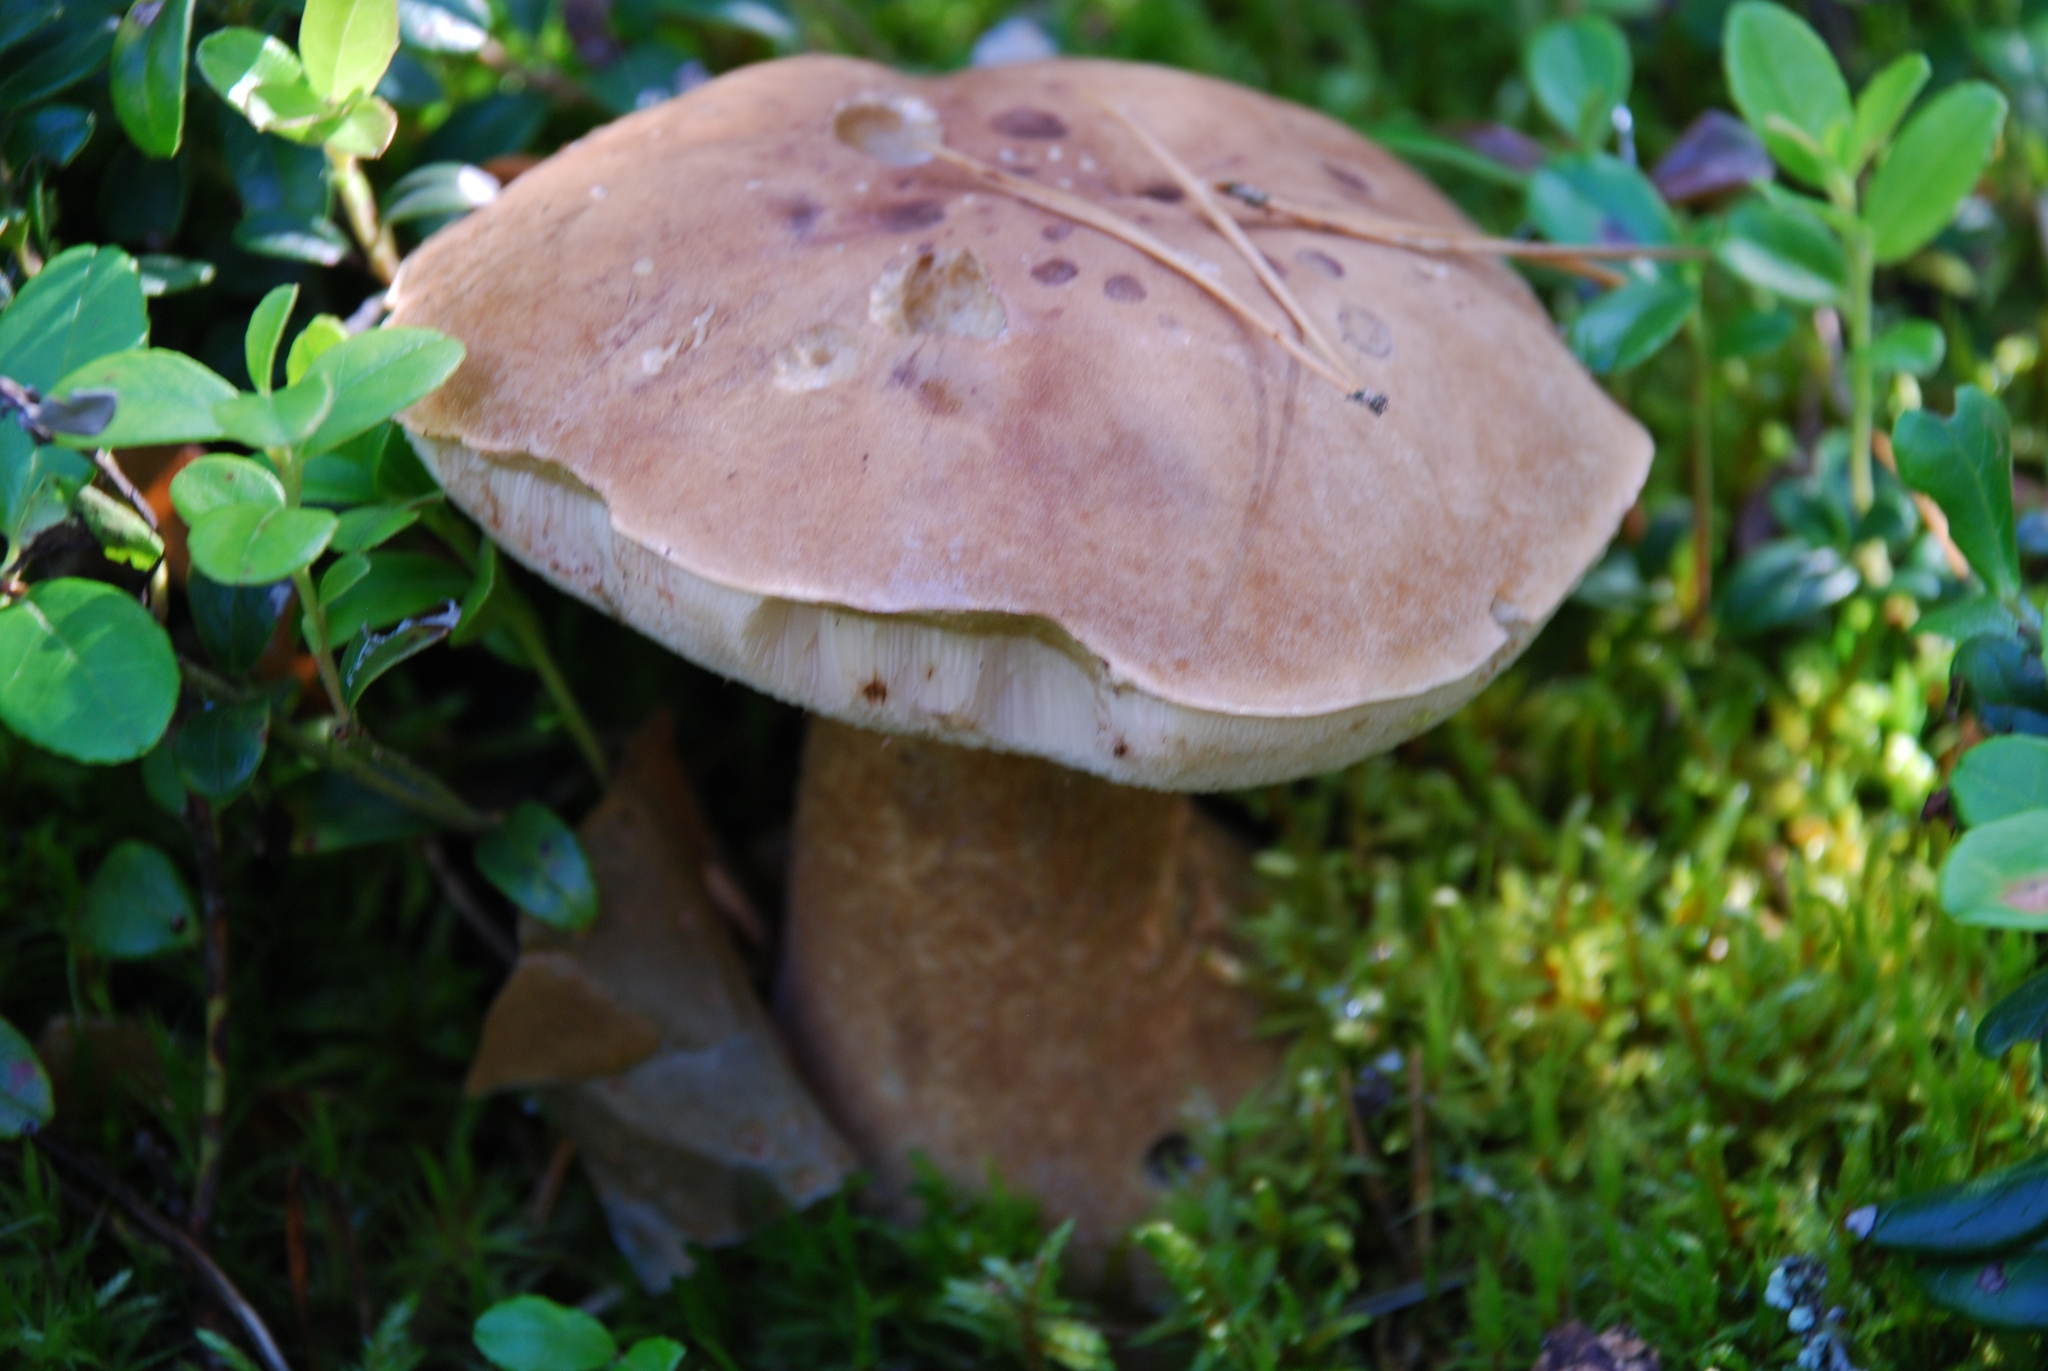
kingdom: Fungi
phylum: Basidiomycota
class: Agaricomycetes
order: Boletales
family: Boletaceae
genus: Tylopilus
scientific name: Tylopilus felleus
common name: Bitter bolete
